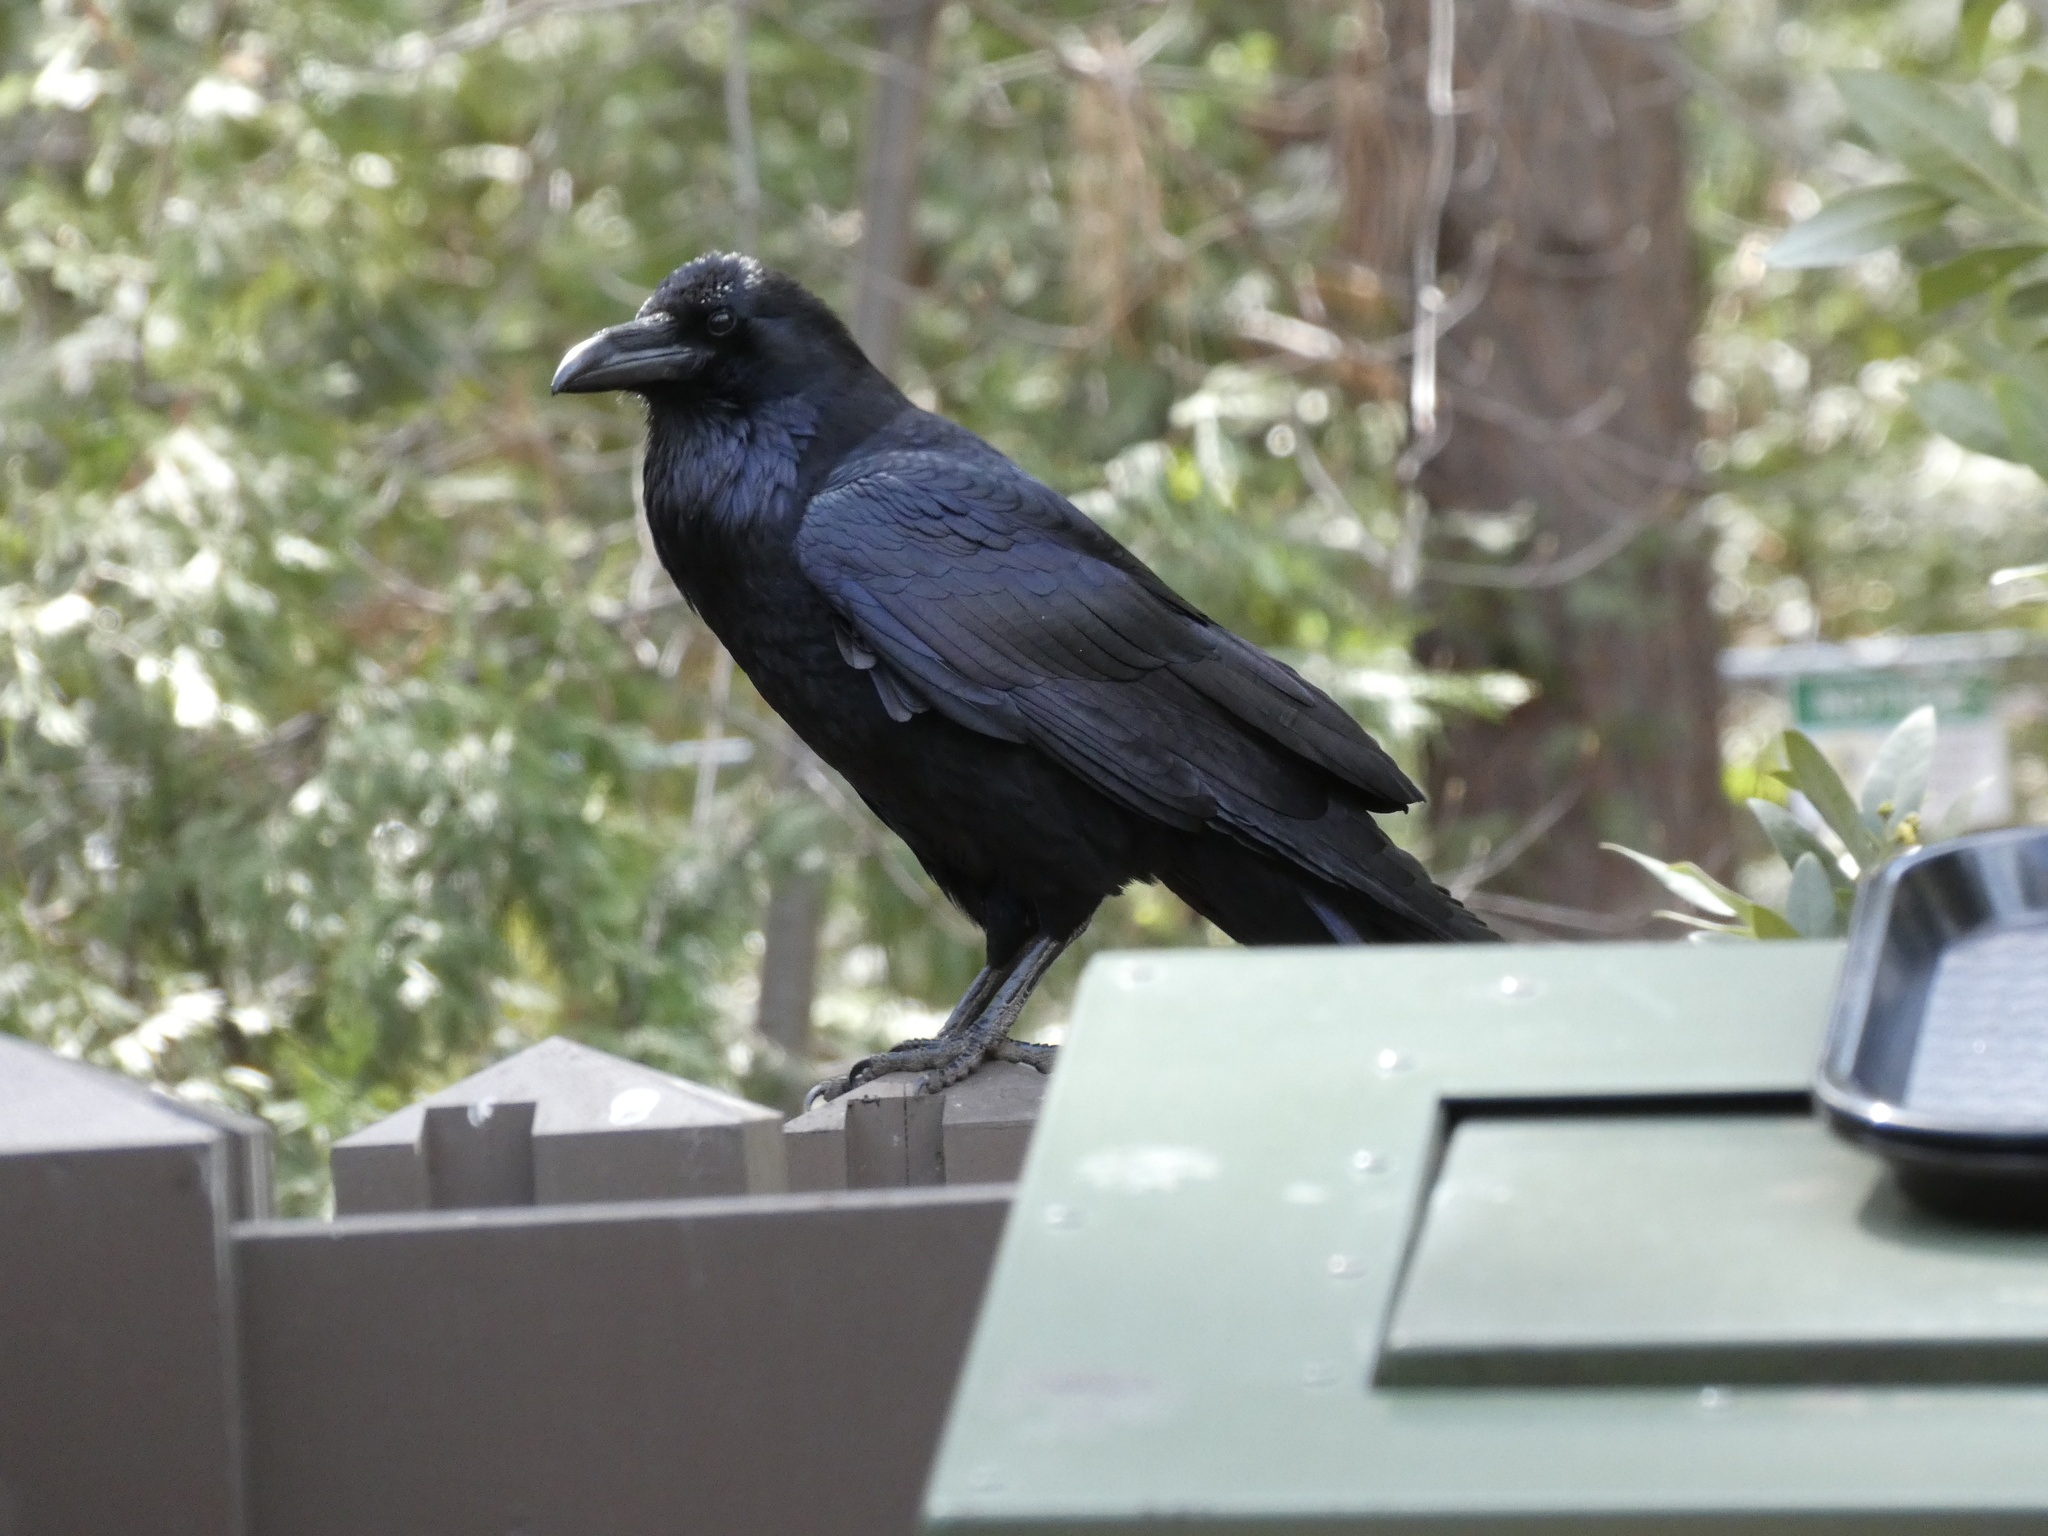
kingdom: Animalia
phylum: Chordata
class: Aves
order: Passeriformes
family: Corvidae
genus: Corvus
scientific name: Corvus corax
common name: Common raven
